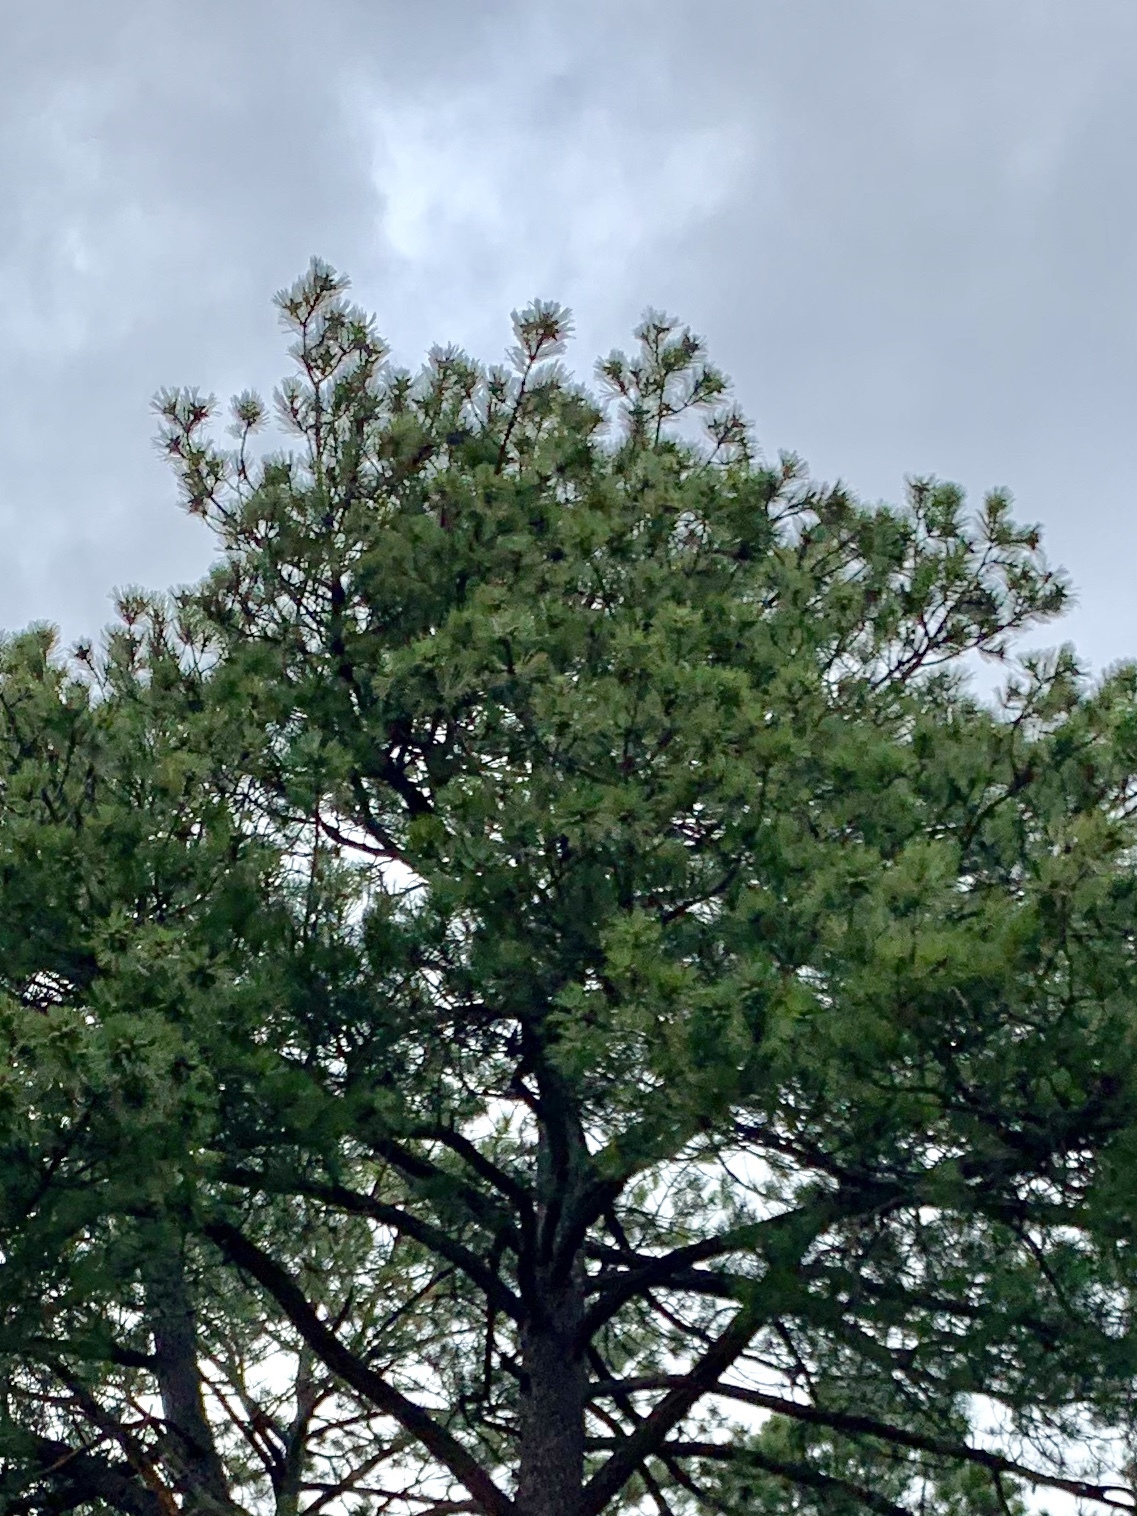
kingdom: Plantae
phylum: Tracheophyta
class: Pinopsida
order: Pinales
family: Pinaceae
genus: Pinus
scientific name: Pinus ponderosa
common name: Western yellow-pine
